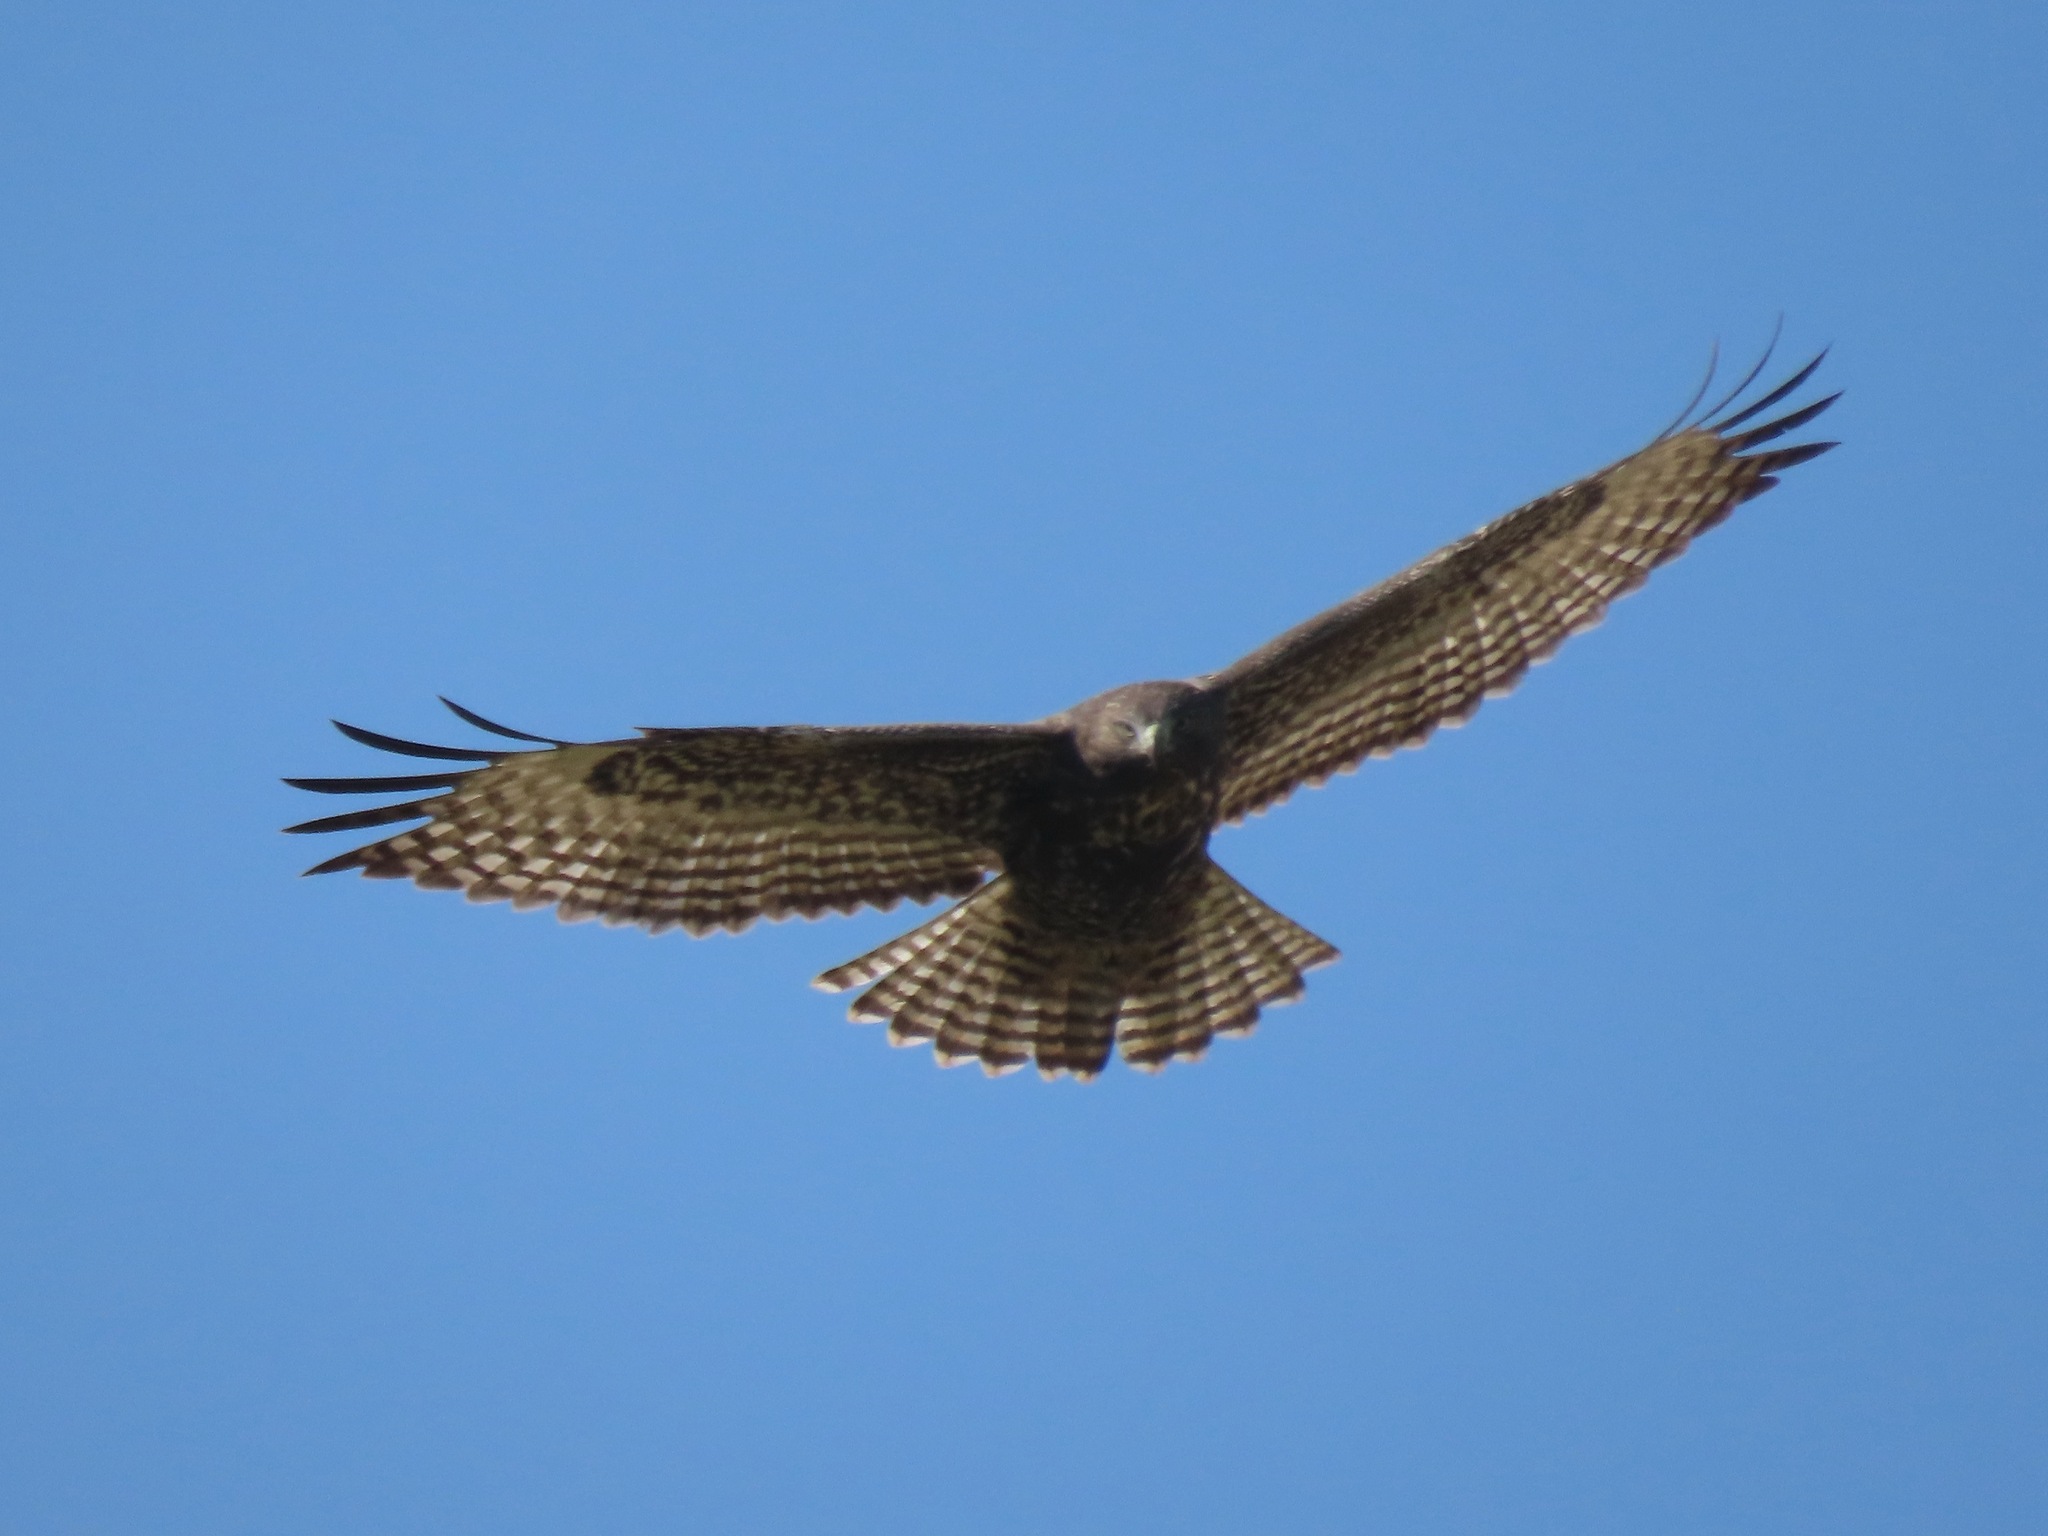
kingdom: Animalia
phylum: Chordata
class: Aves
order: Accipitriformes
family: Accipitridae
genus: Buteo
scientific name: Buteo jamaicensis
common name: Red-tailed hawk
